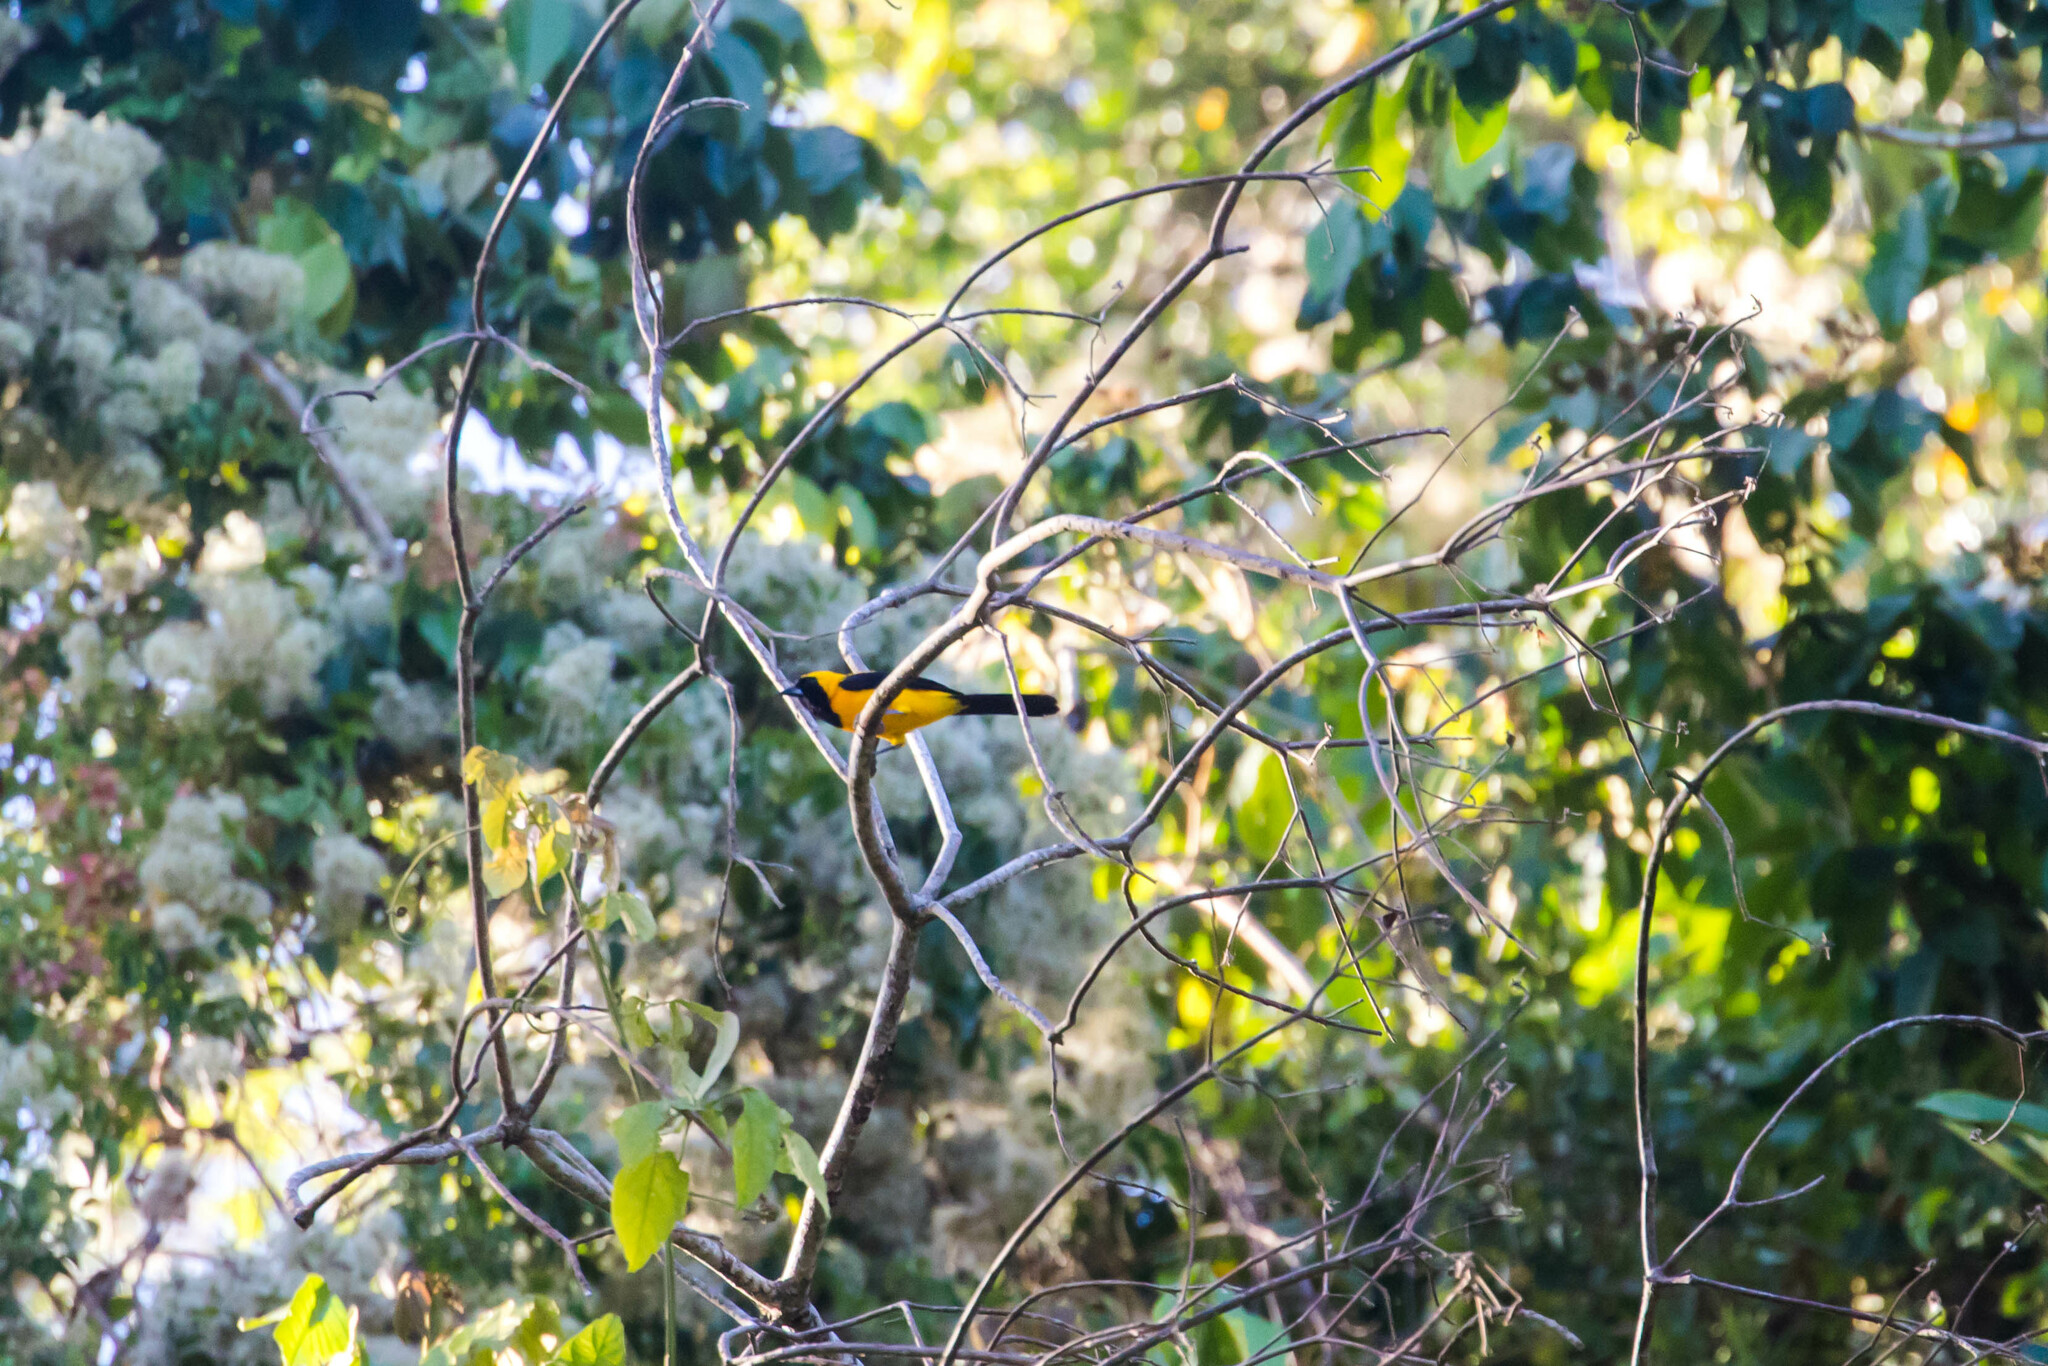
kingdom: Animalia
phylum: Chordata
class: Aves
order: Passeriformes
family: Icteridae
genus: Icterus
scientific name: Icterus chrysater
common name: Yellow-backed oriole
